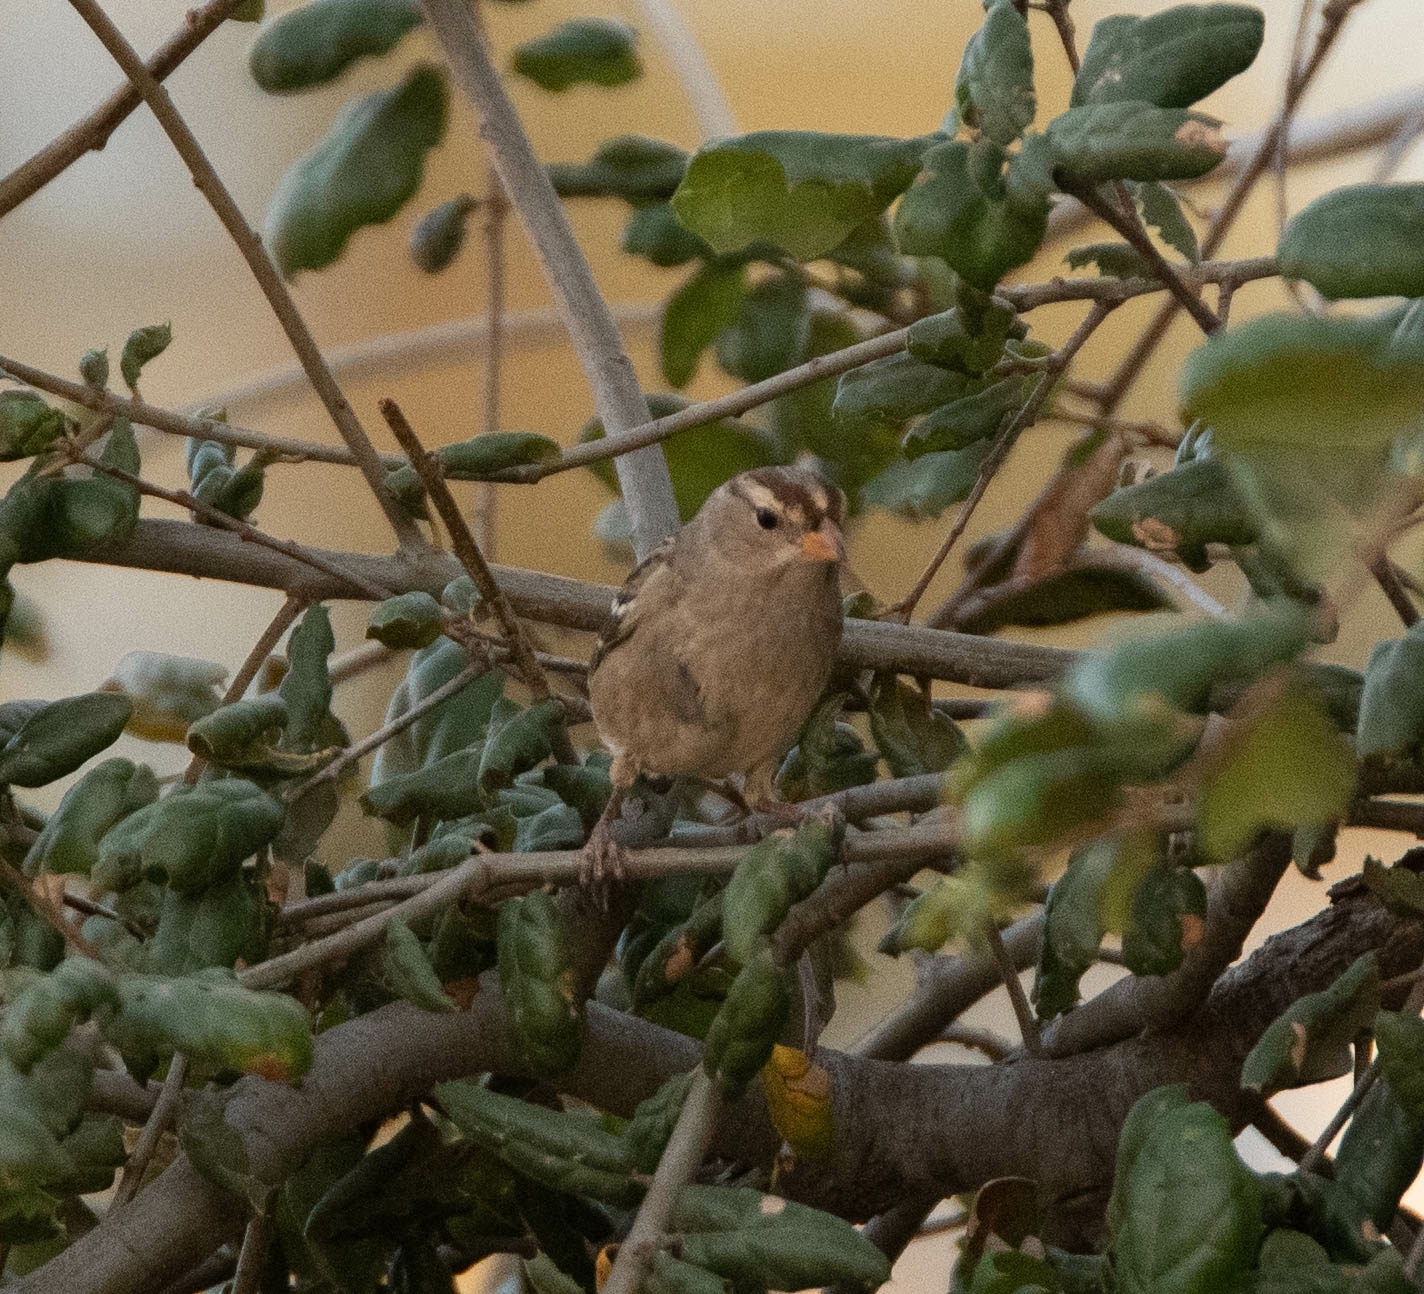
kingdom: Animalia
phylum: Chordata
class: Aves
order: Passeriformes
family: Passerellidae
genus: Zonotrichia
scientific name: Zonotrichia leucophrys
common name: White-crowned sparrow
